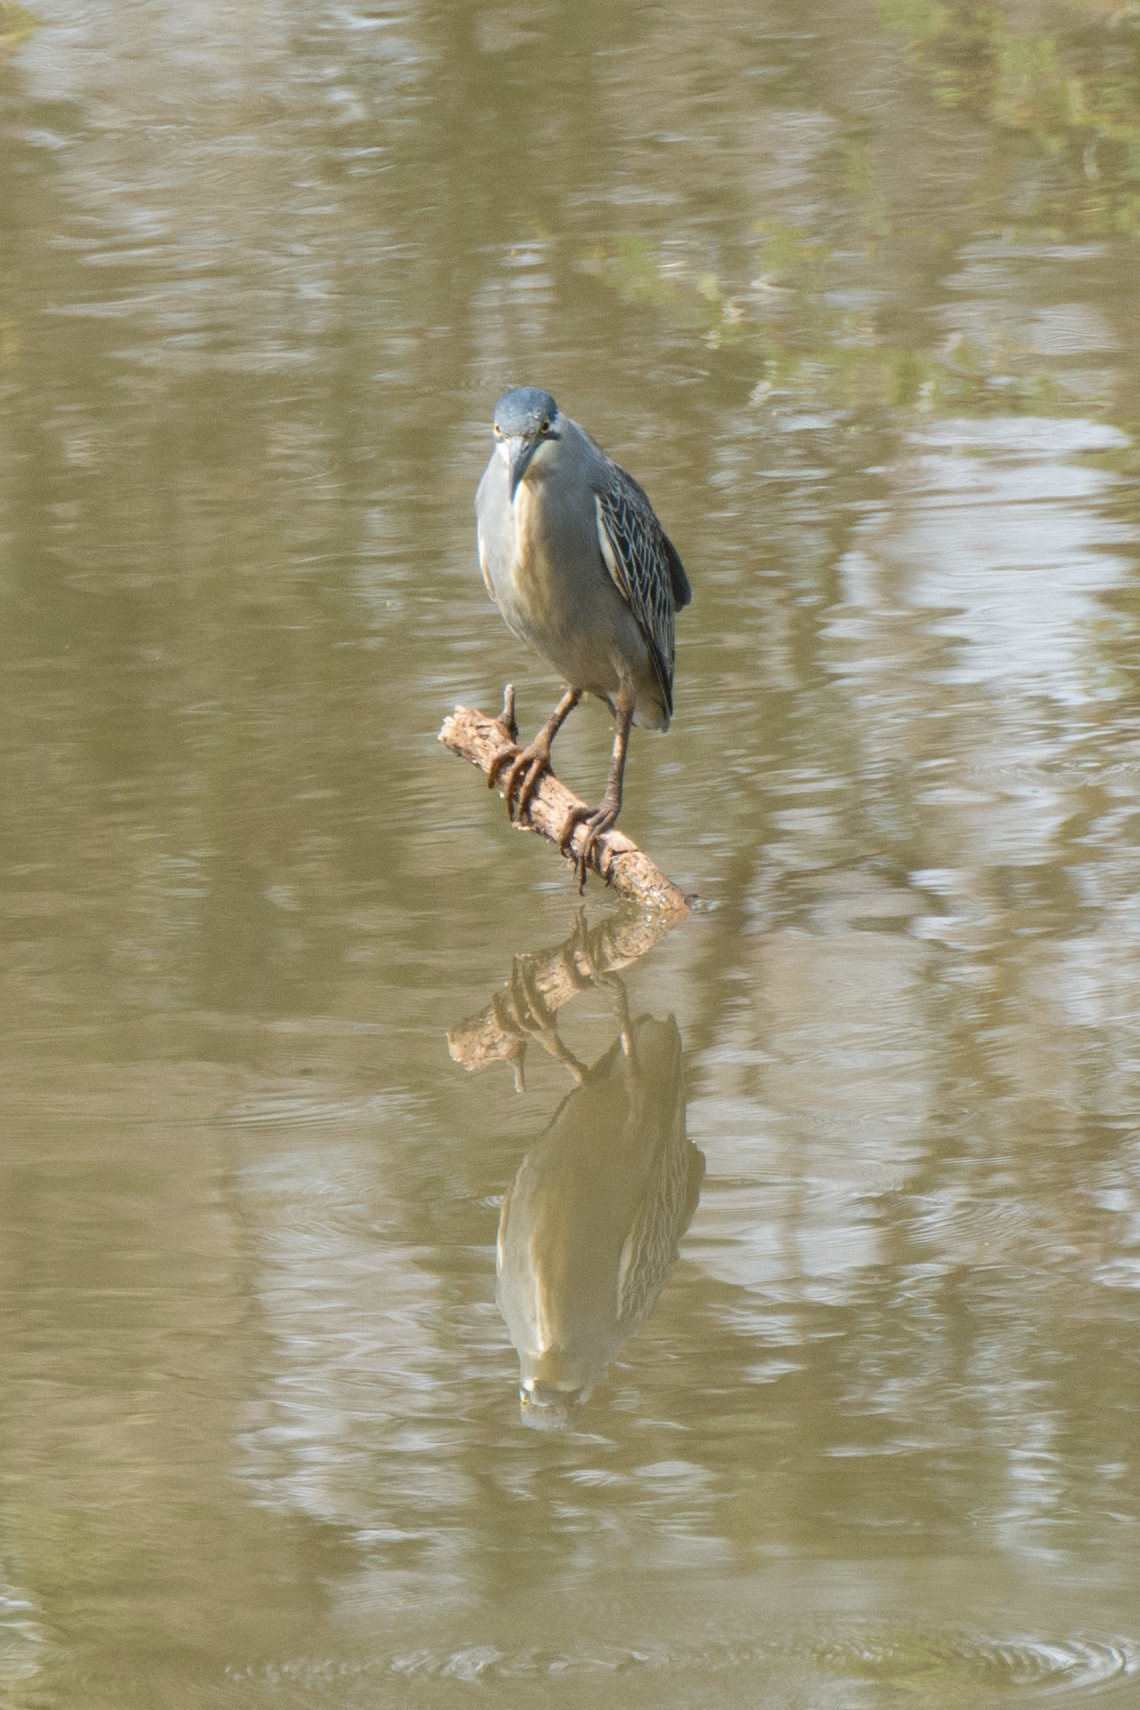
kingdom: Animalia
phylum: Chordata
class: Aves
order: Pelecaniformes
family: Ardeidae
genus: Butorides
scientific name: Butorides striata
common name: Striated heron
